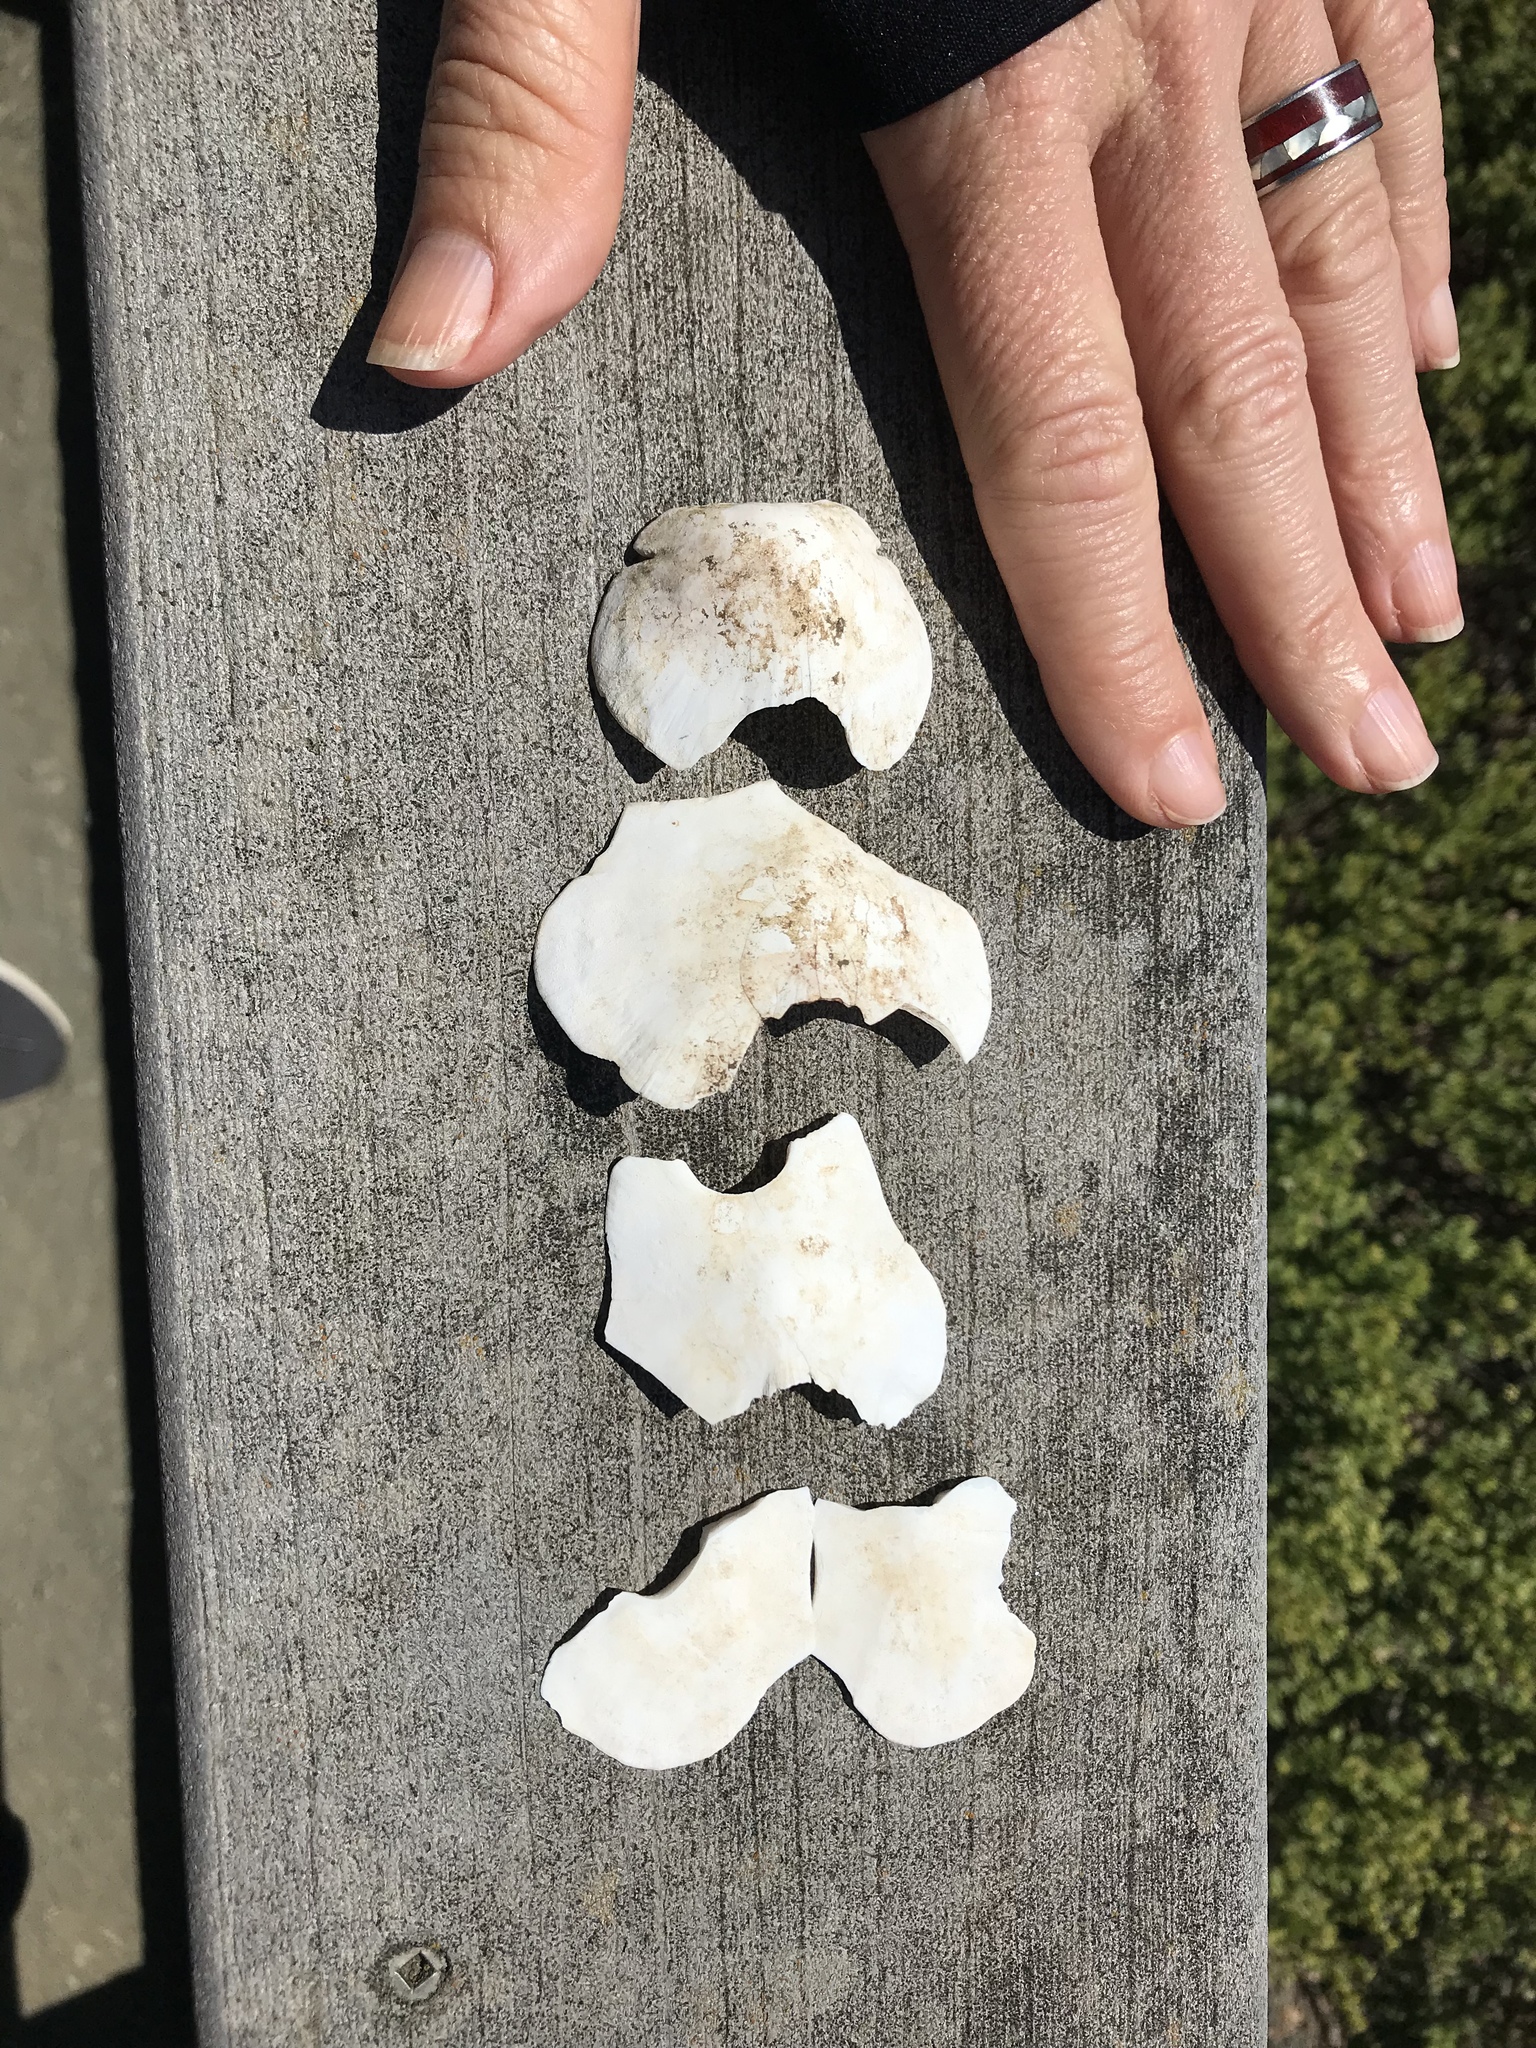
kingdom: Animalia
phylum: Mollusca
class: Polyplacophora
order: Chitonida
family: Acanthochitonidae
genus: Cryptochiton
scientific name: Cryptochiton stelleri
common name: Giant pacific chiton
